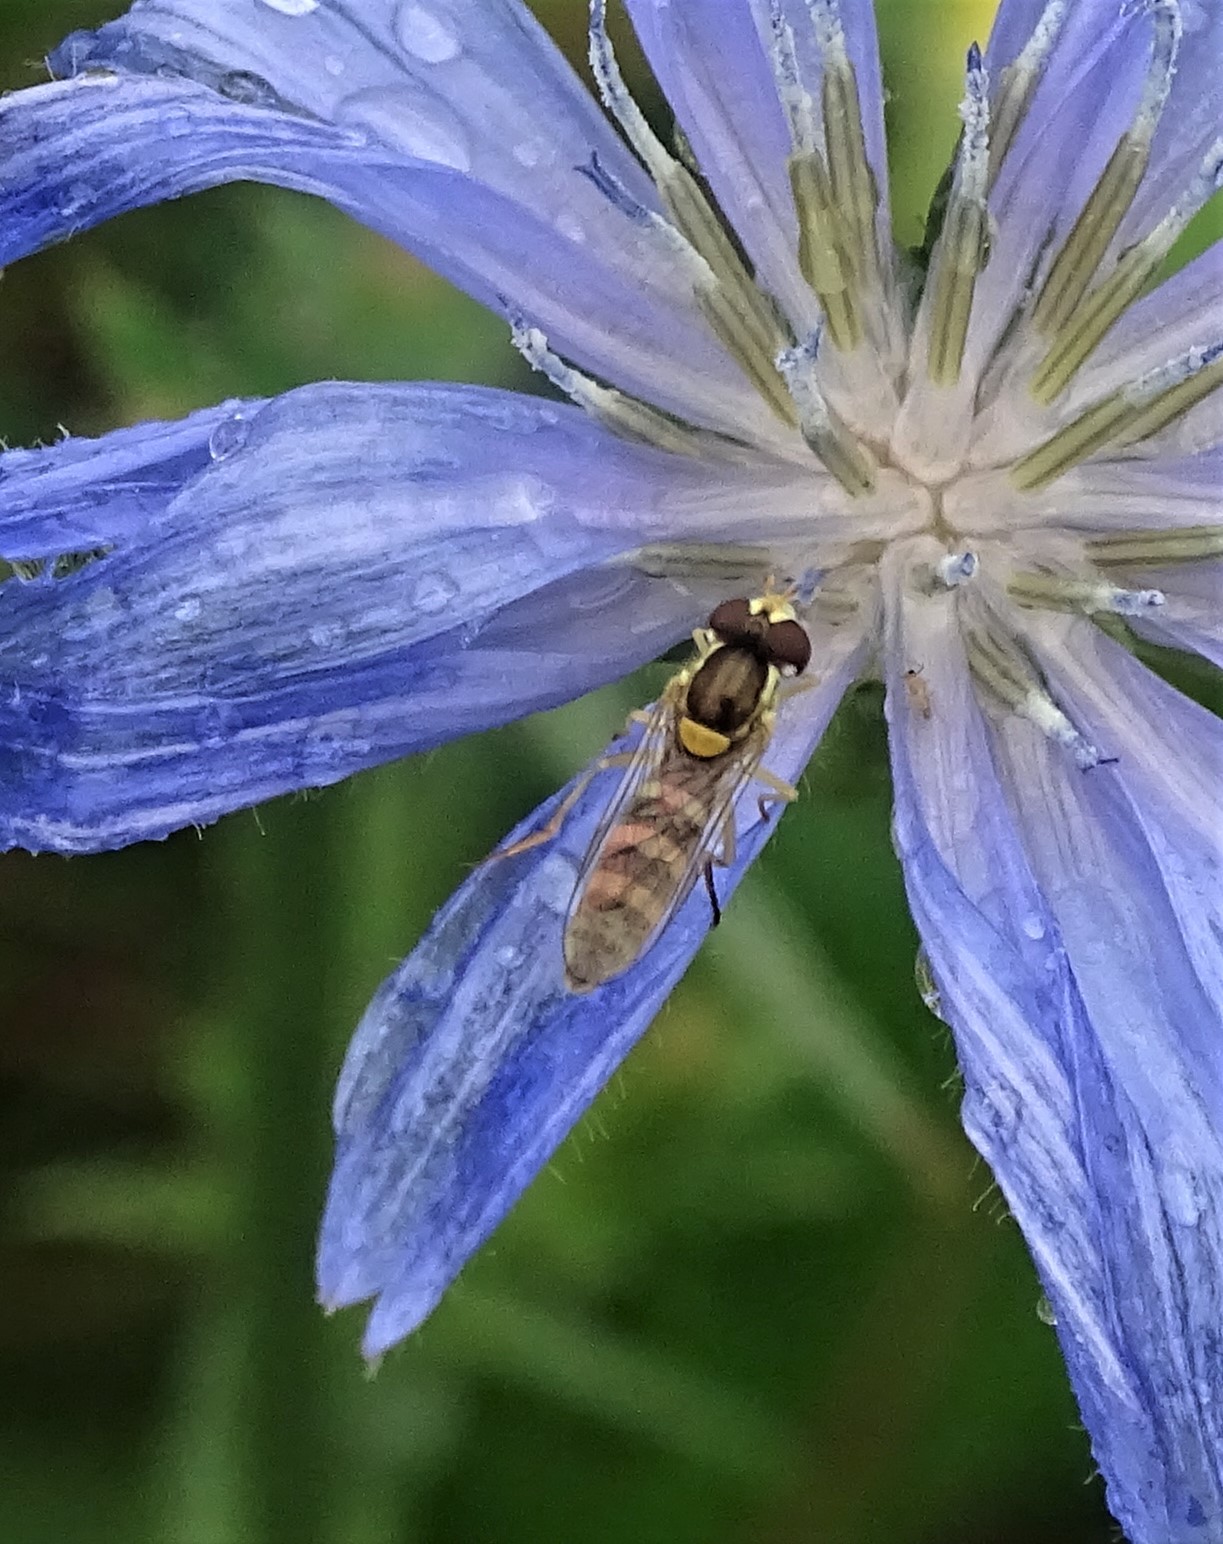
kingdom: Animalia
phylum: Arthropoda
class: Insecta
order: Diptera
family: Syrphidae
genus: Sphaerophoria
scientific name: Sphaerophoria
